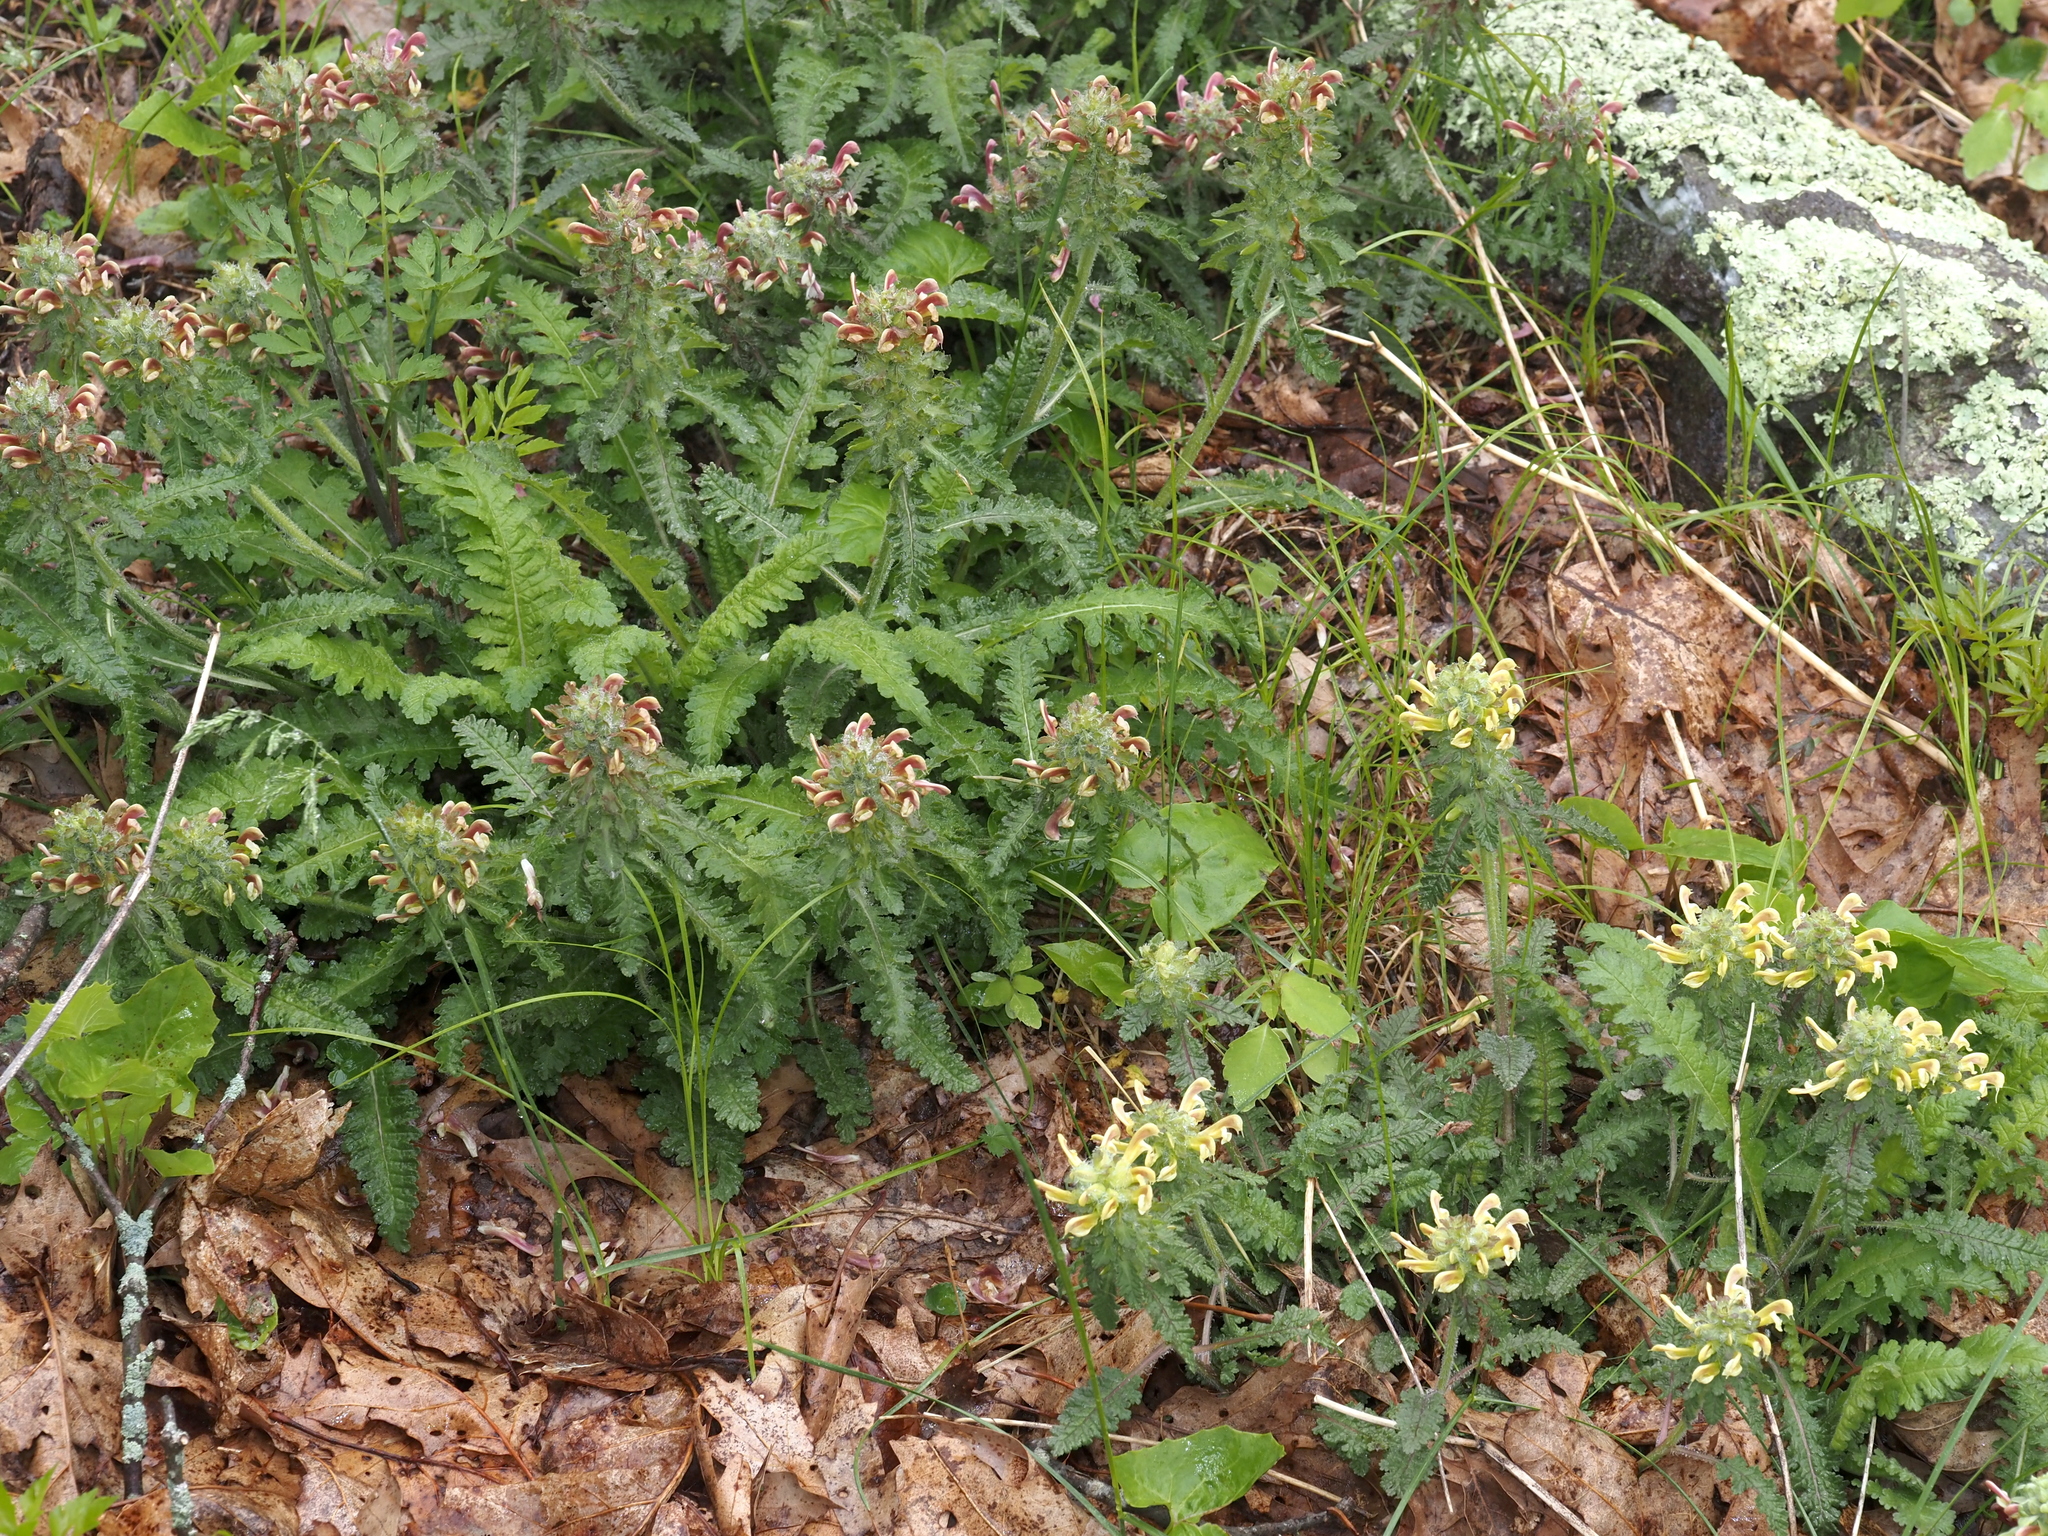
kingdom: Plantae
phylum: Tracheophyta
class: Magnoliopsida
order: Lamiales
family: Orobanchaceae
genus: Pedicularis
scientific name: Pedicularis canadensis
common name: Early lousewort
